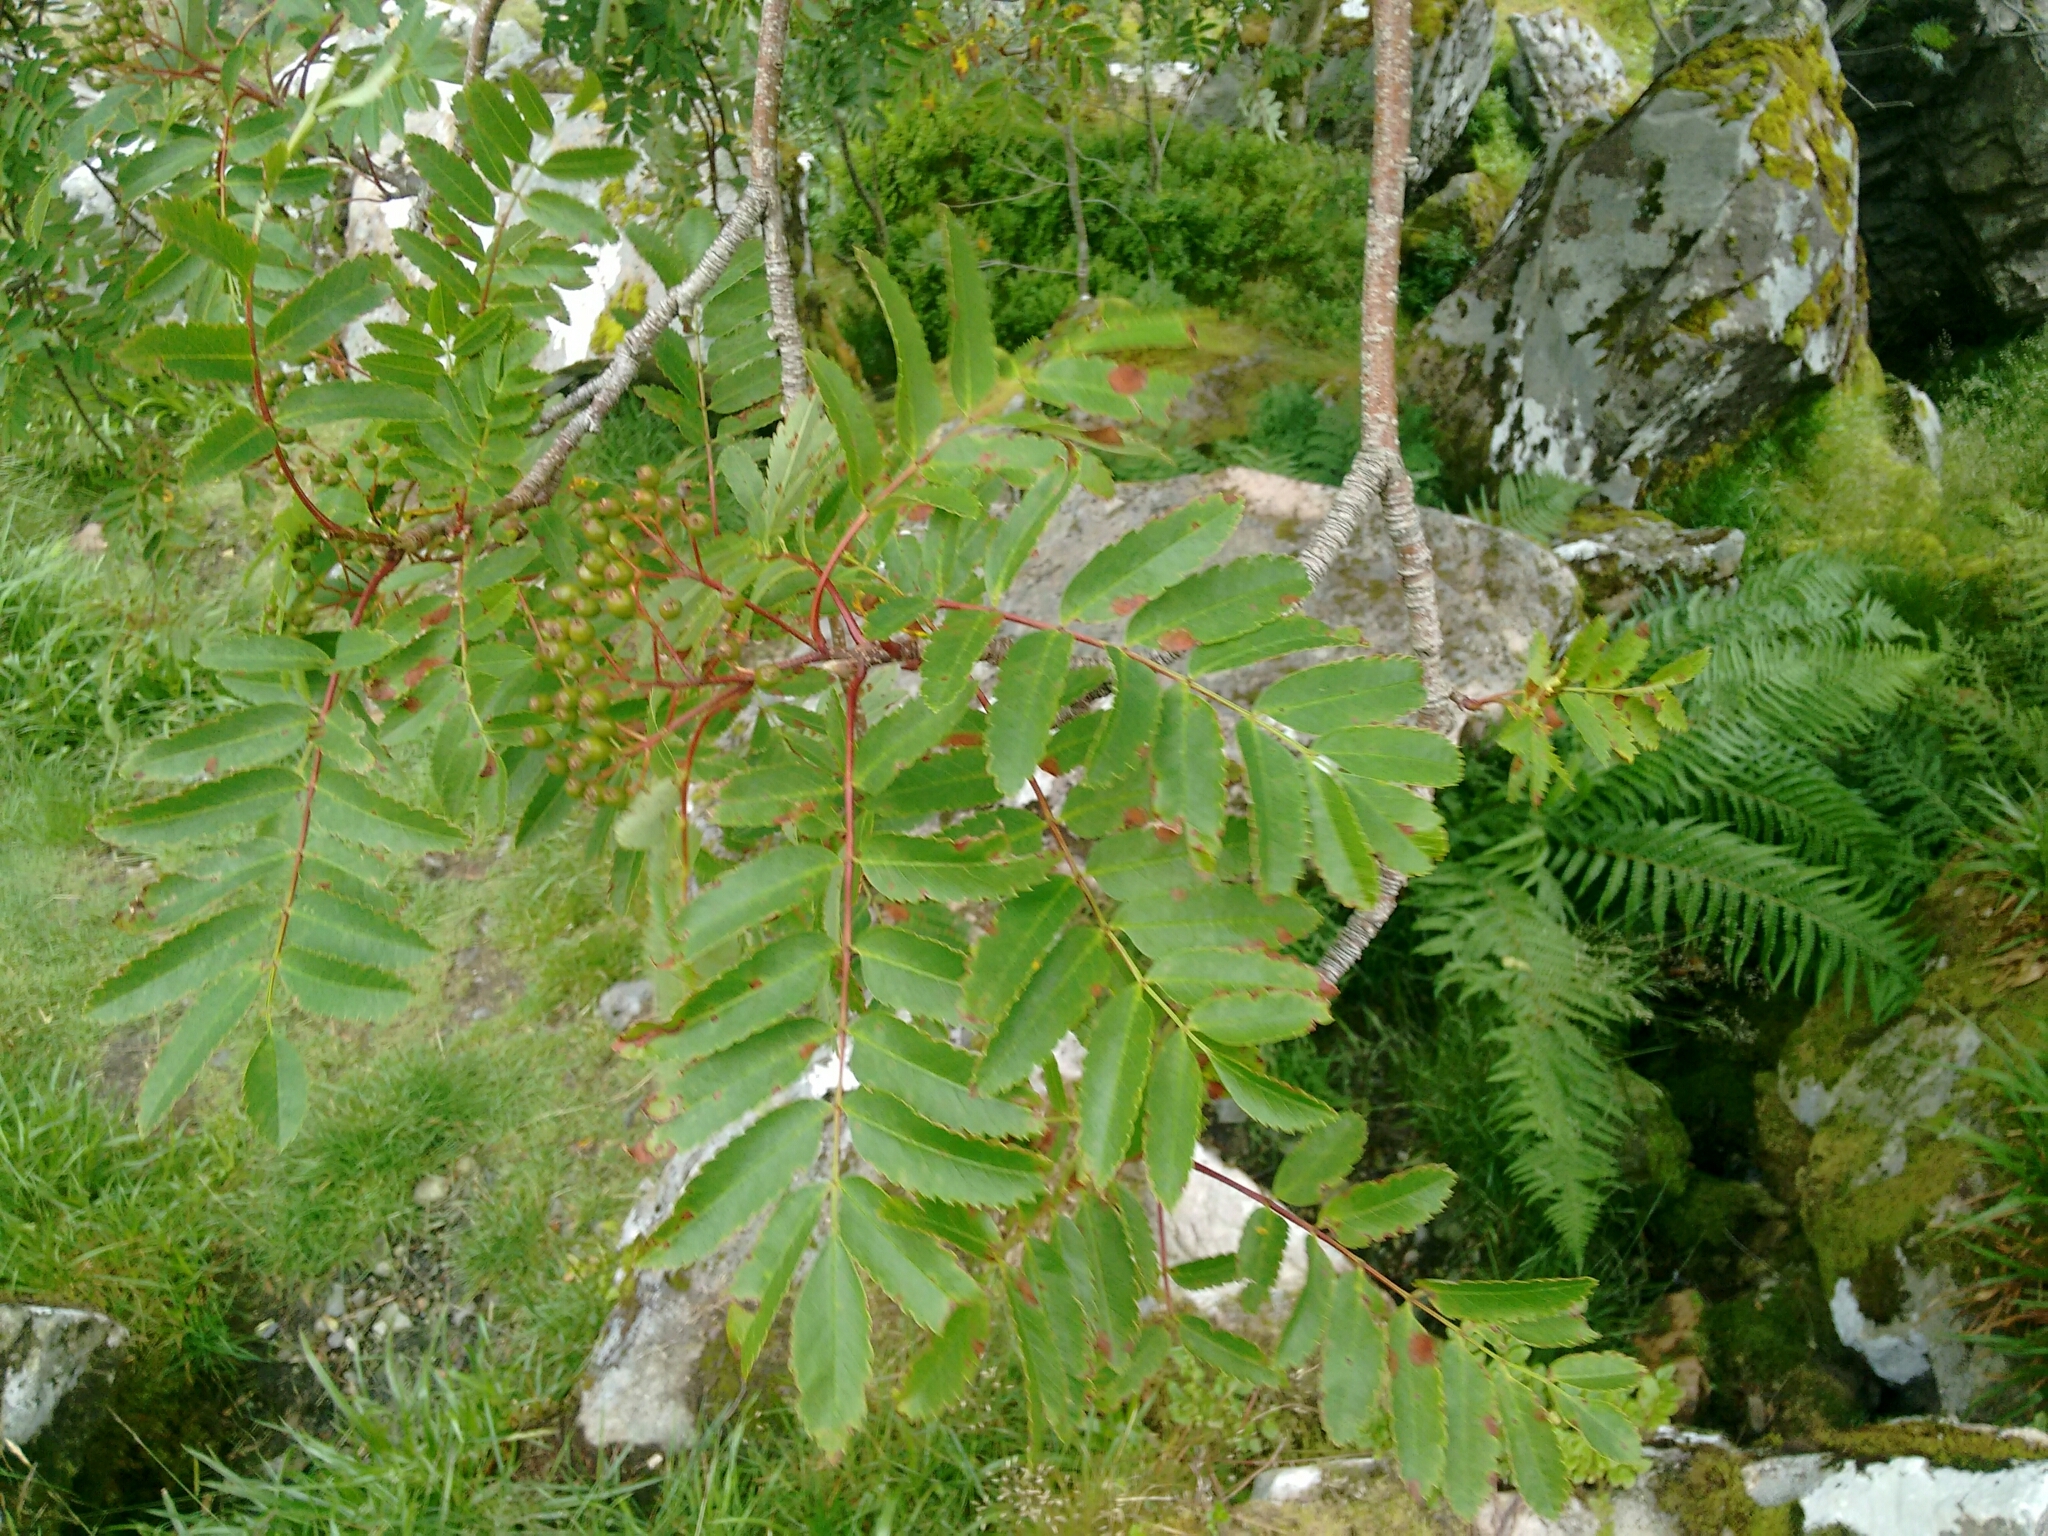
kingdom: Plantae
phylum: Tracheophyta
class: Magnoliopsida
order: Rosales
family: Rosaceae
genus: Sorbus
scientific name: Sorbus aucuparia
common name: Rowan
